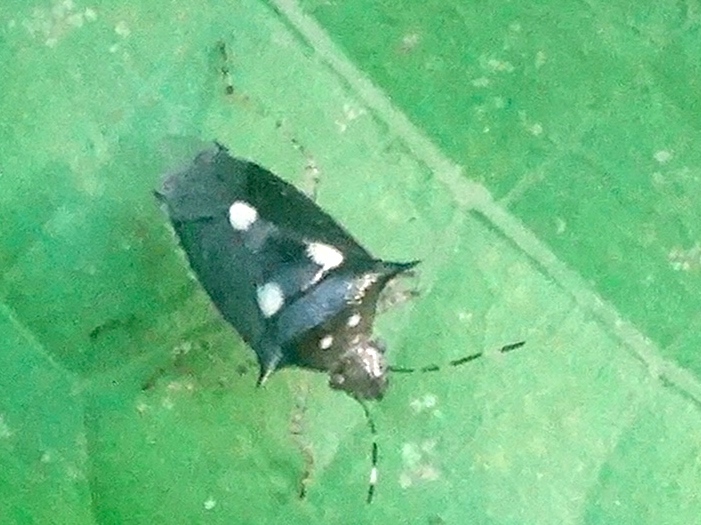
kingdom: Animalia
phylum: Arthropoda
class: Insecta
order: Hemiptera
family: Pentatomidae
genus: Mormidea
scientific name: Mormidea lunara
